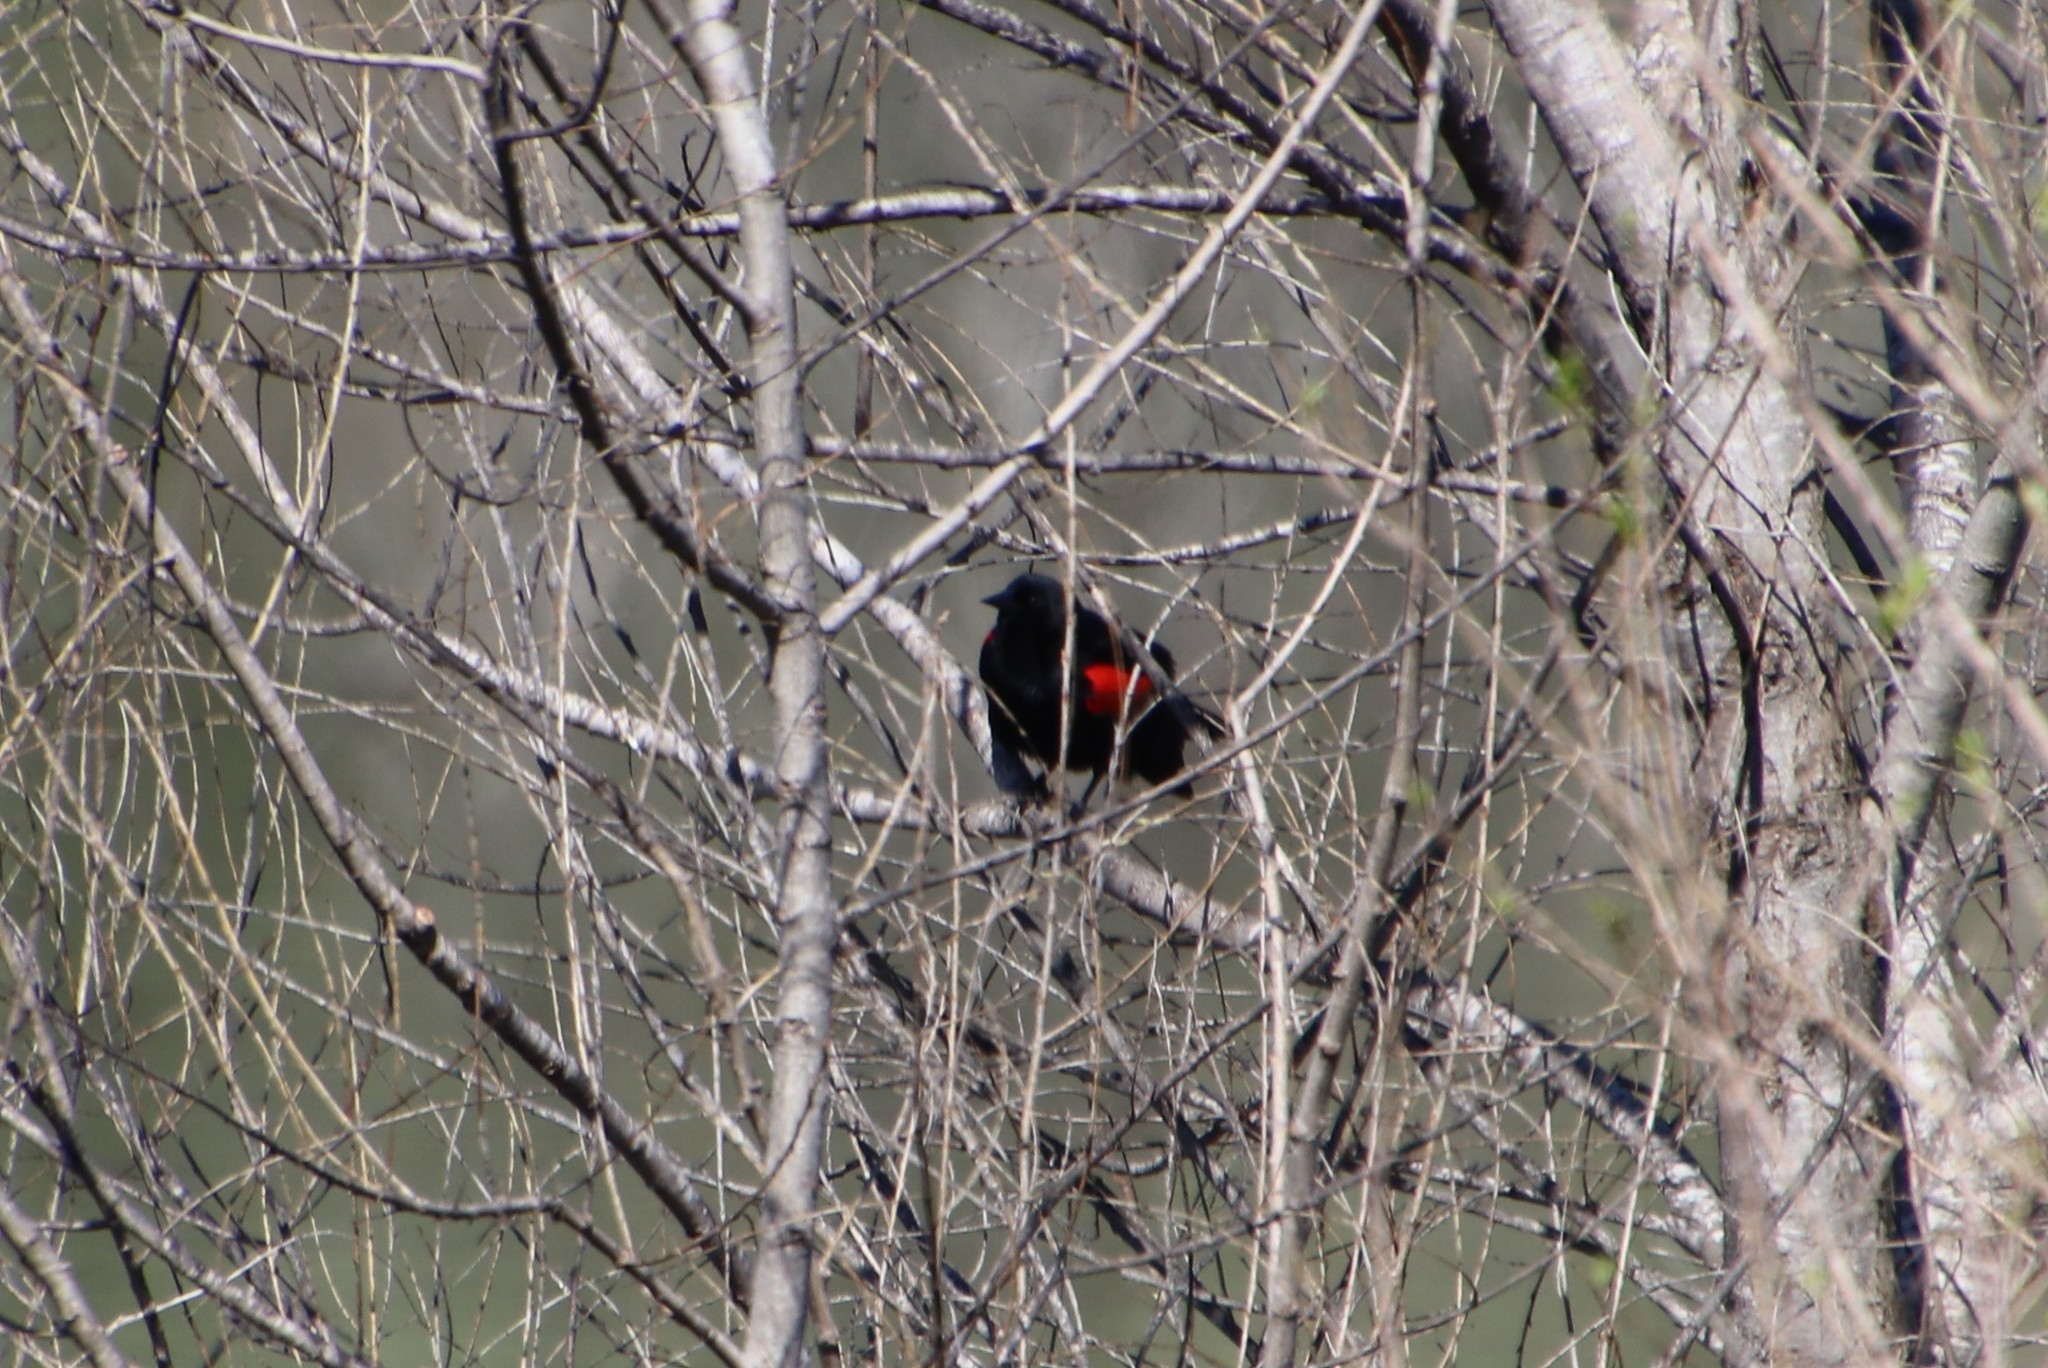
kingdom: Animalia
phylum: Chordata
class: Aves
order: Passeriformes
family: Icteridae
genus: Agelaius
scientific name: Agelaius phoeniceus
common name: Red-winged blackbird
